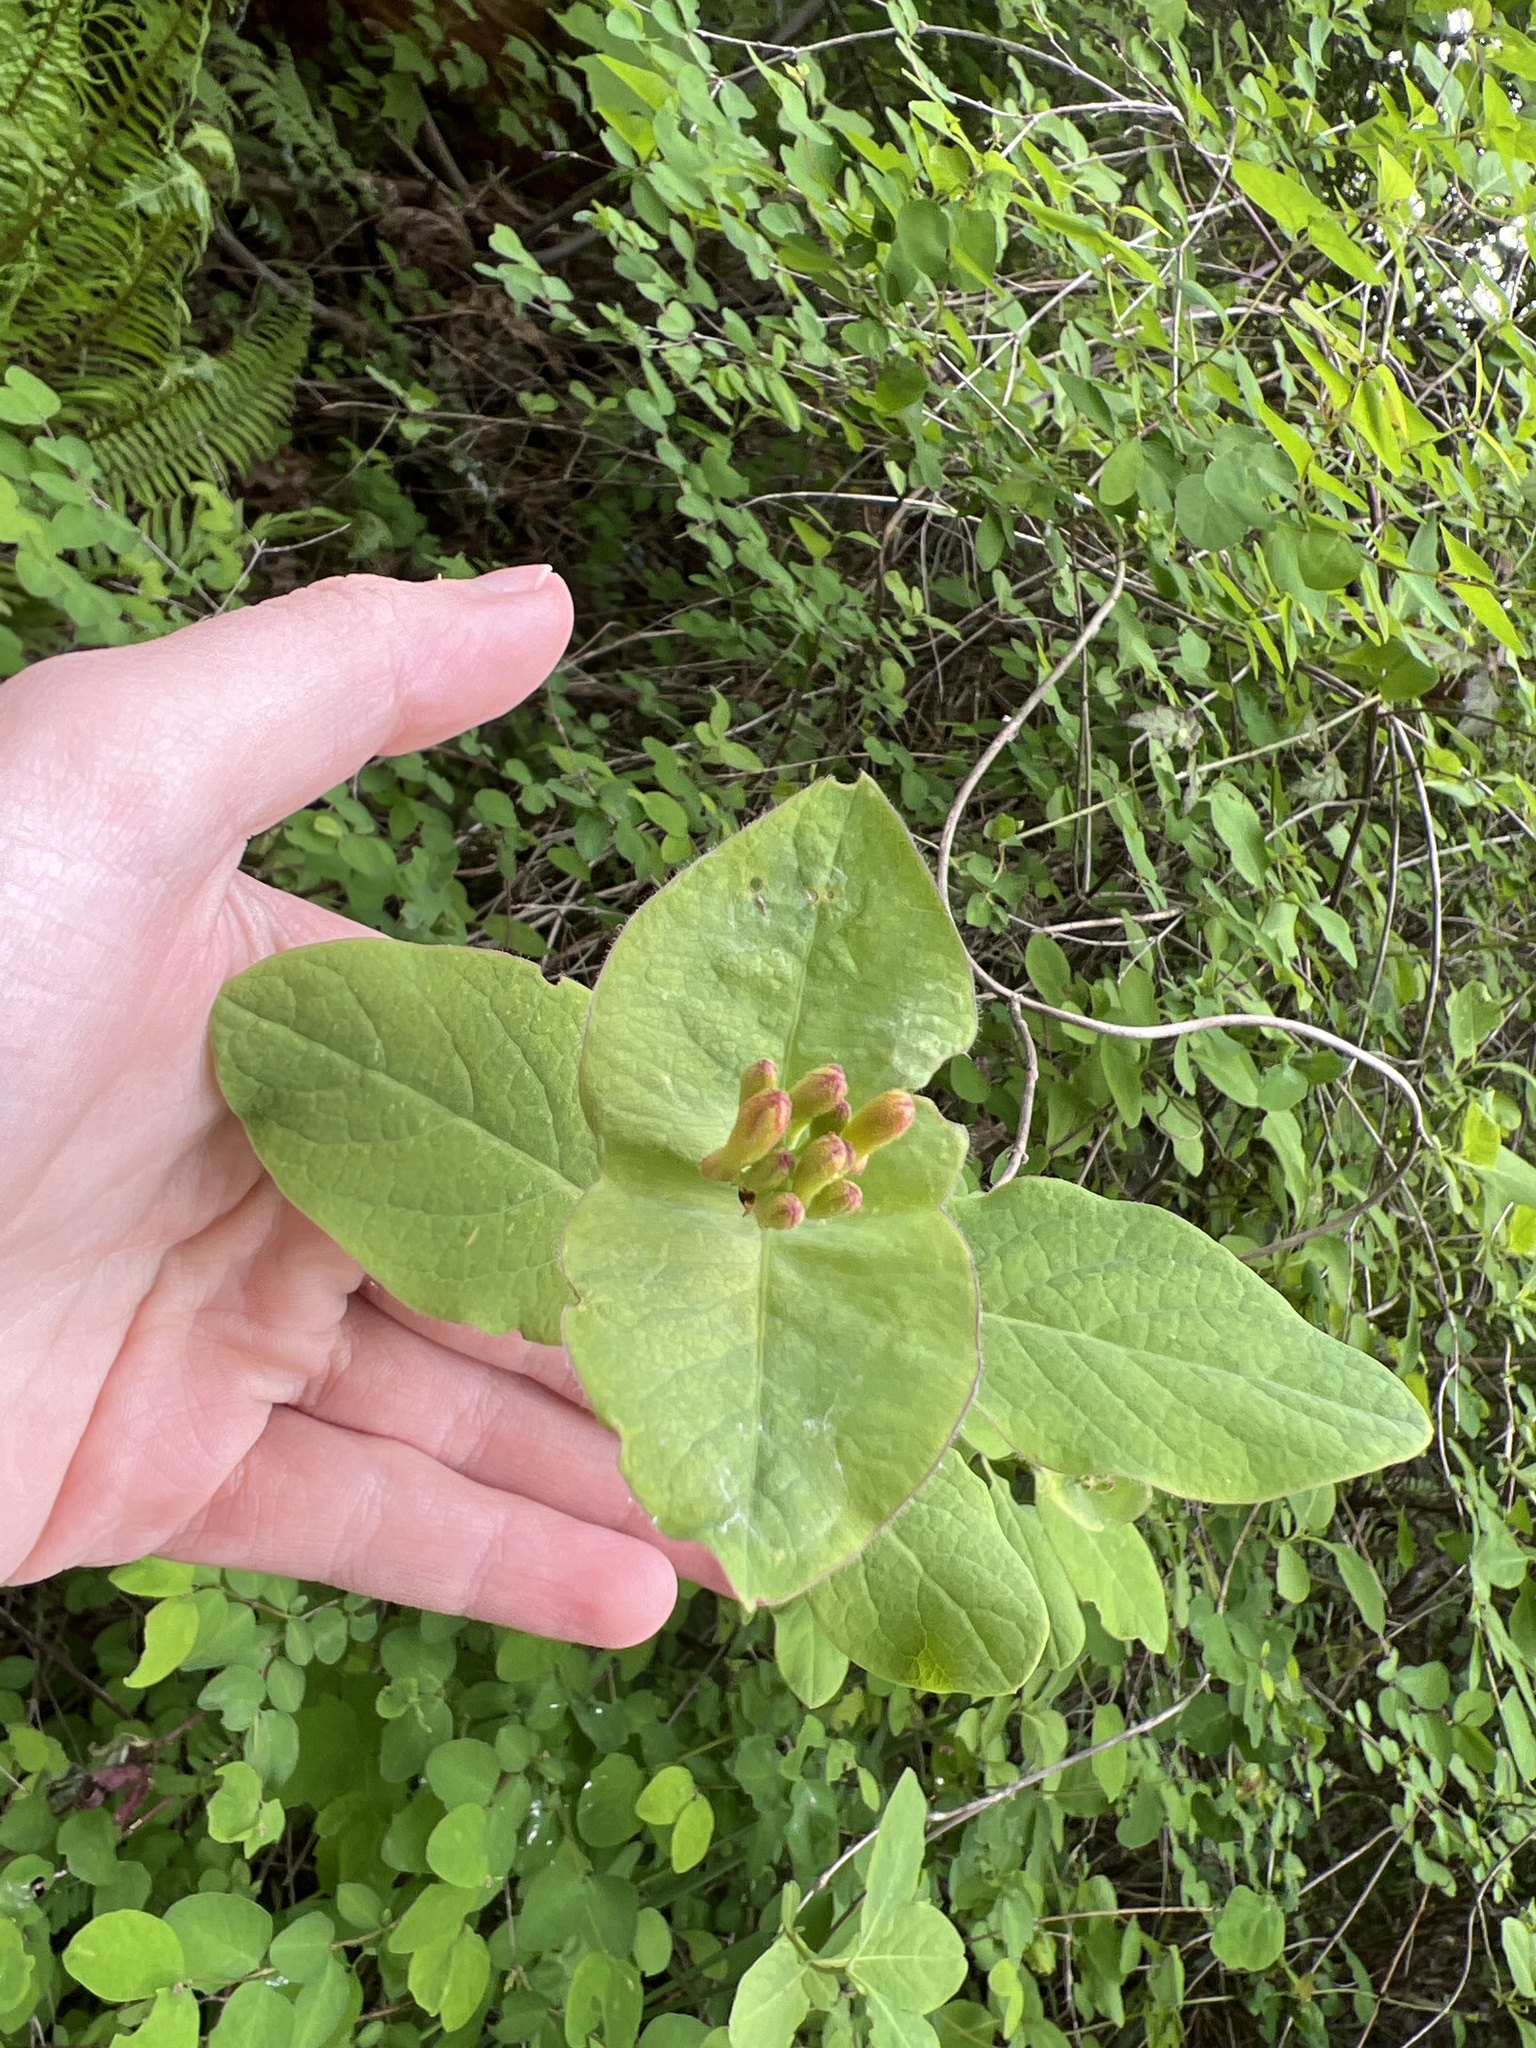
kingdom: Plantae
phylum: Tracheophyta
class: Magnoliopsida
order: Dipsacales
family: Caprifoliaceae
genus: Lonicera
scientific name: Lonicera ciliosa
